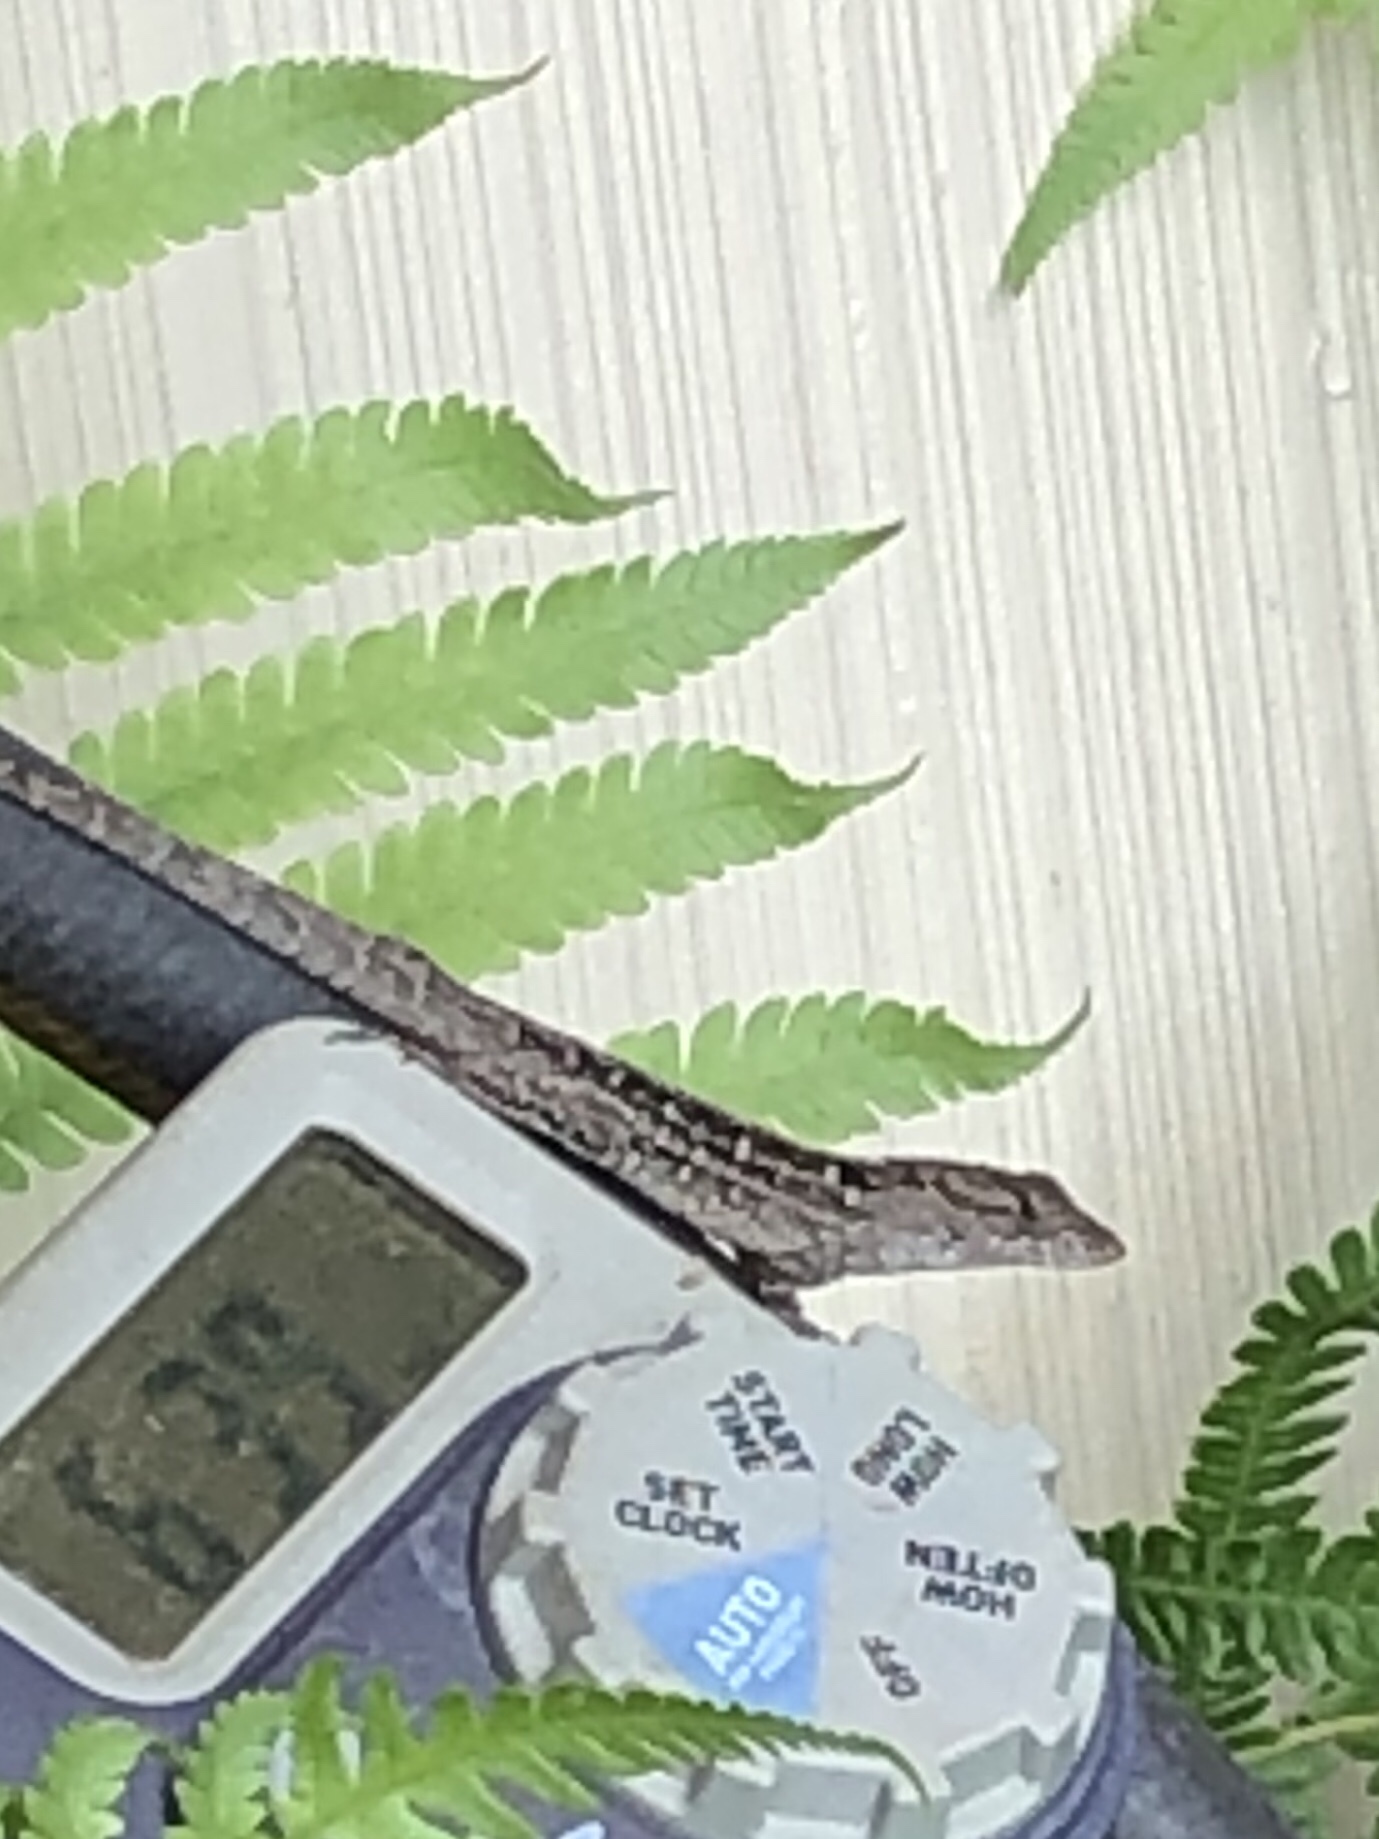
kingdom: Animalia
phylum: Chordata
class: Squamata
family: Dactyloidae
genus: Anolis
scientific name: Anolis sagrei
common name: Brown anole
